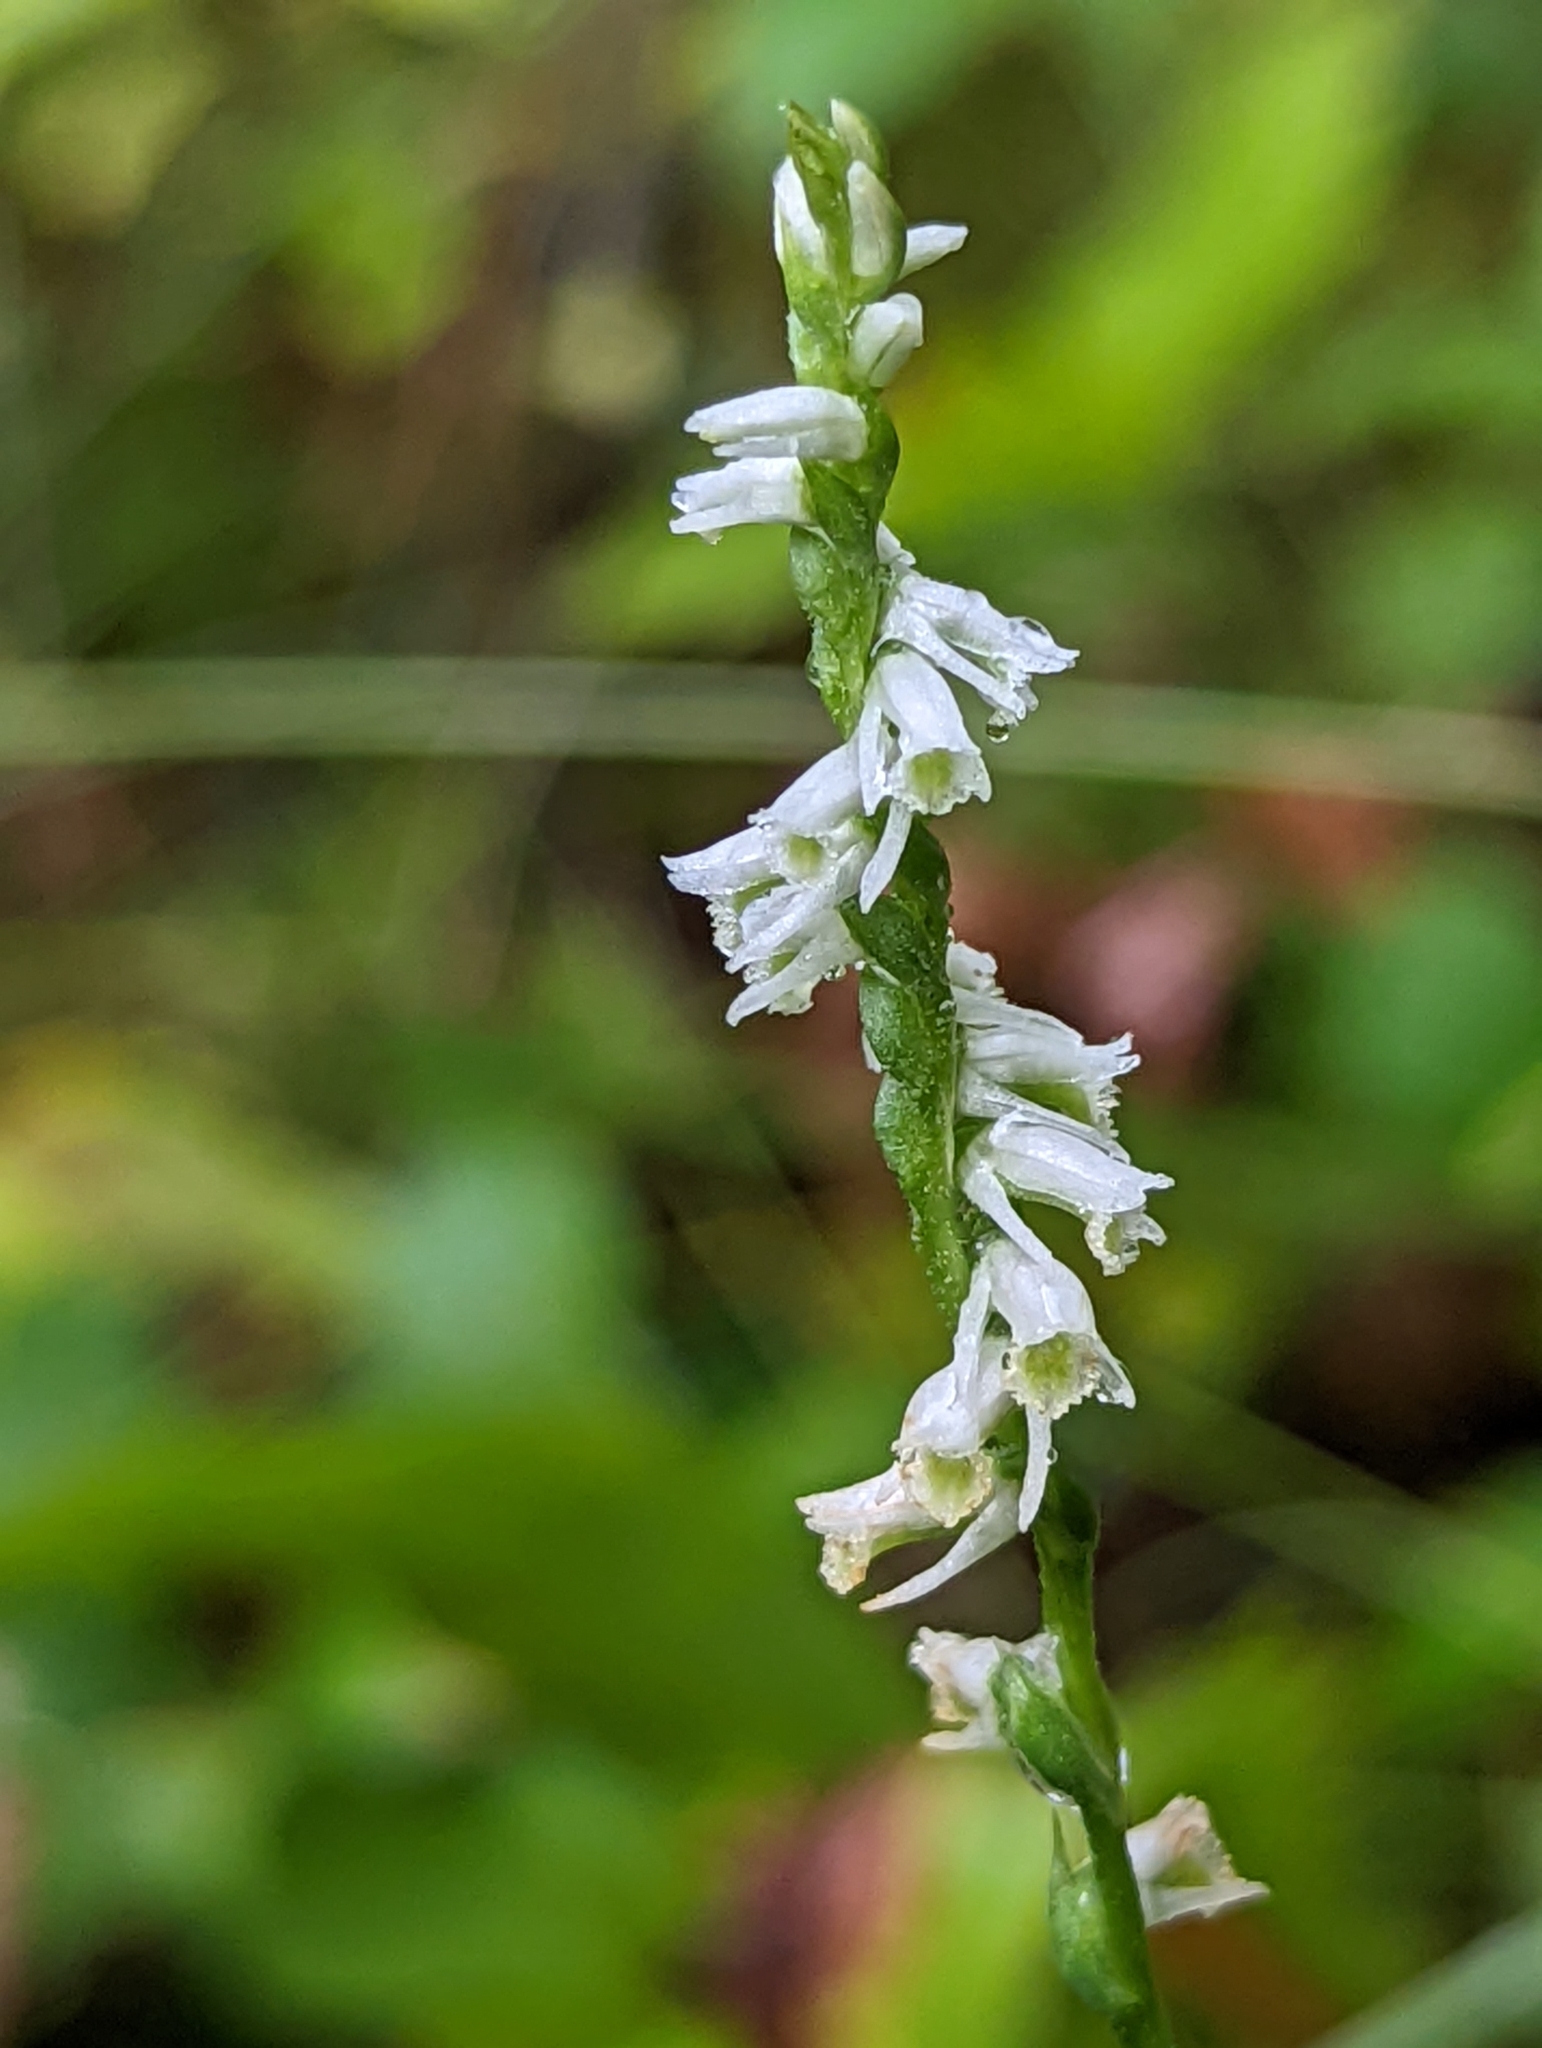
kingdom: Plantae
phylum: Tracheophyta
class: Liliopsida
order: Asparagales
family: Orchidaceae
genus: Spiranthes
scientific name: Spiranthes lacera
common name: Northern slender ladies'-tresses
